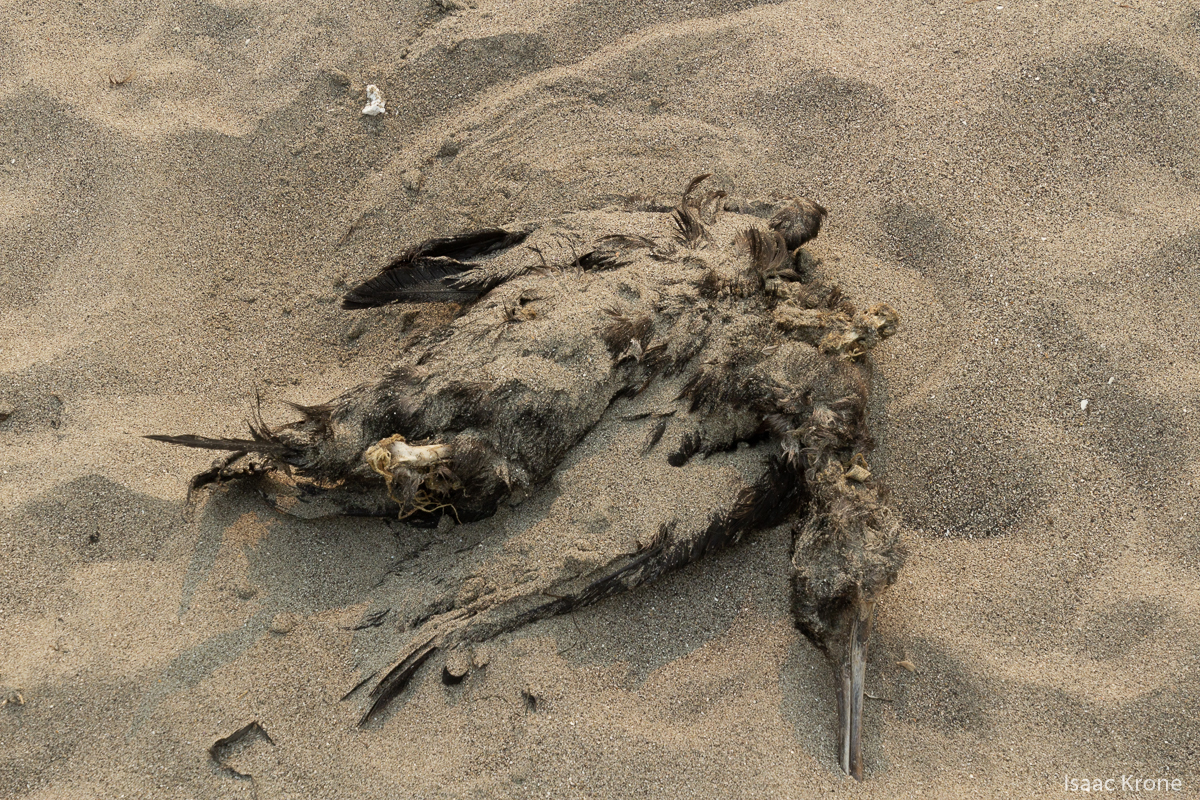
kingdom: Animalia
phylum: Chordata
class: Aves
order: Suliformes
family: Phalacrocoracidae
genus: Urile
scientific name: Urile penicillatus
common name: Brandt's cormorant
